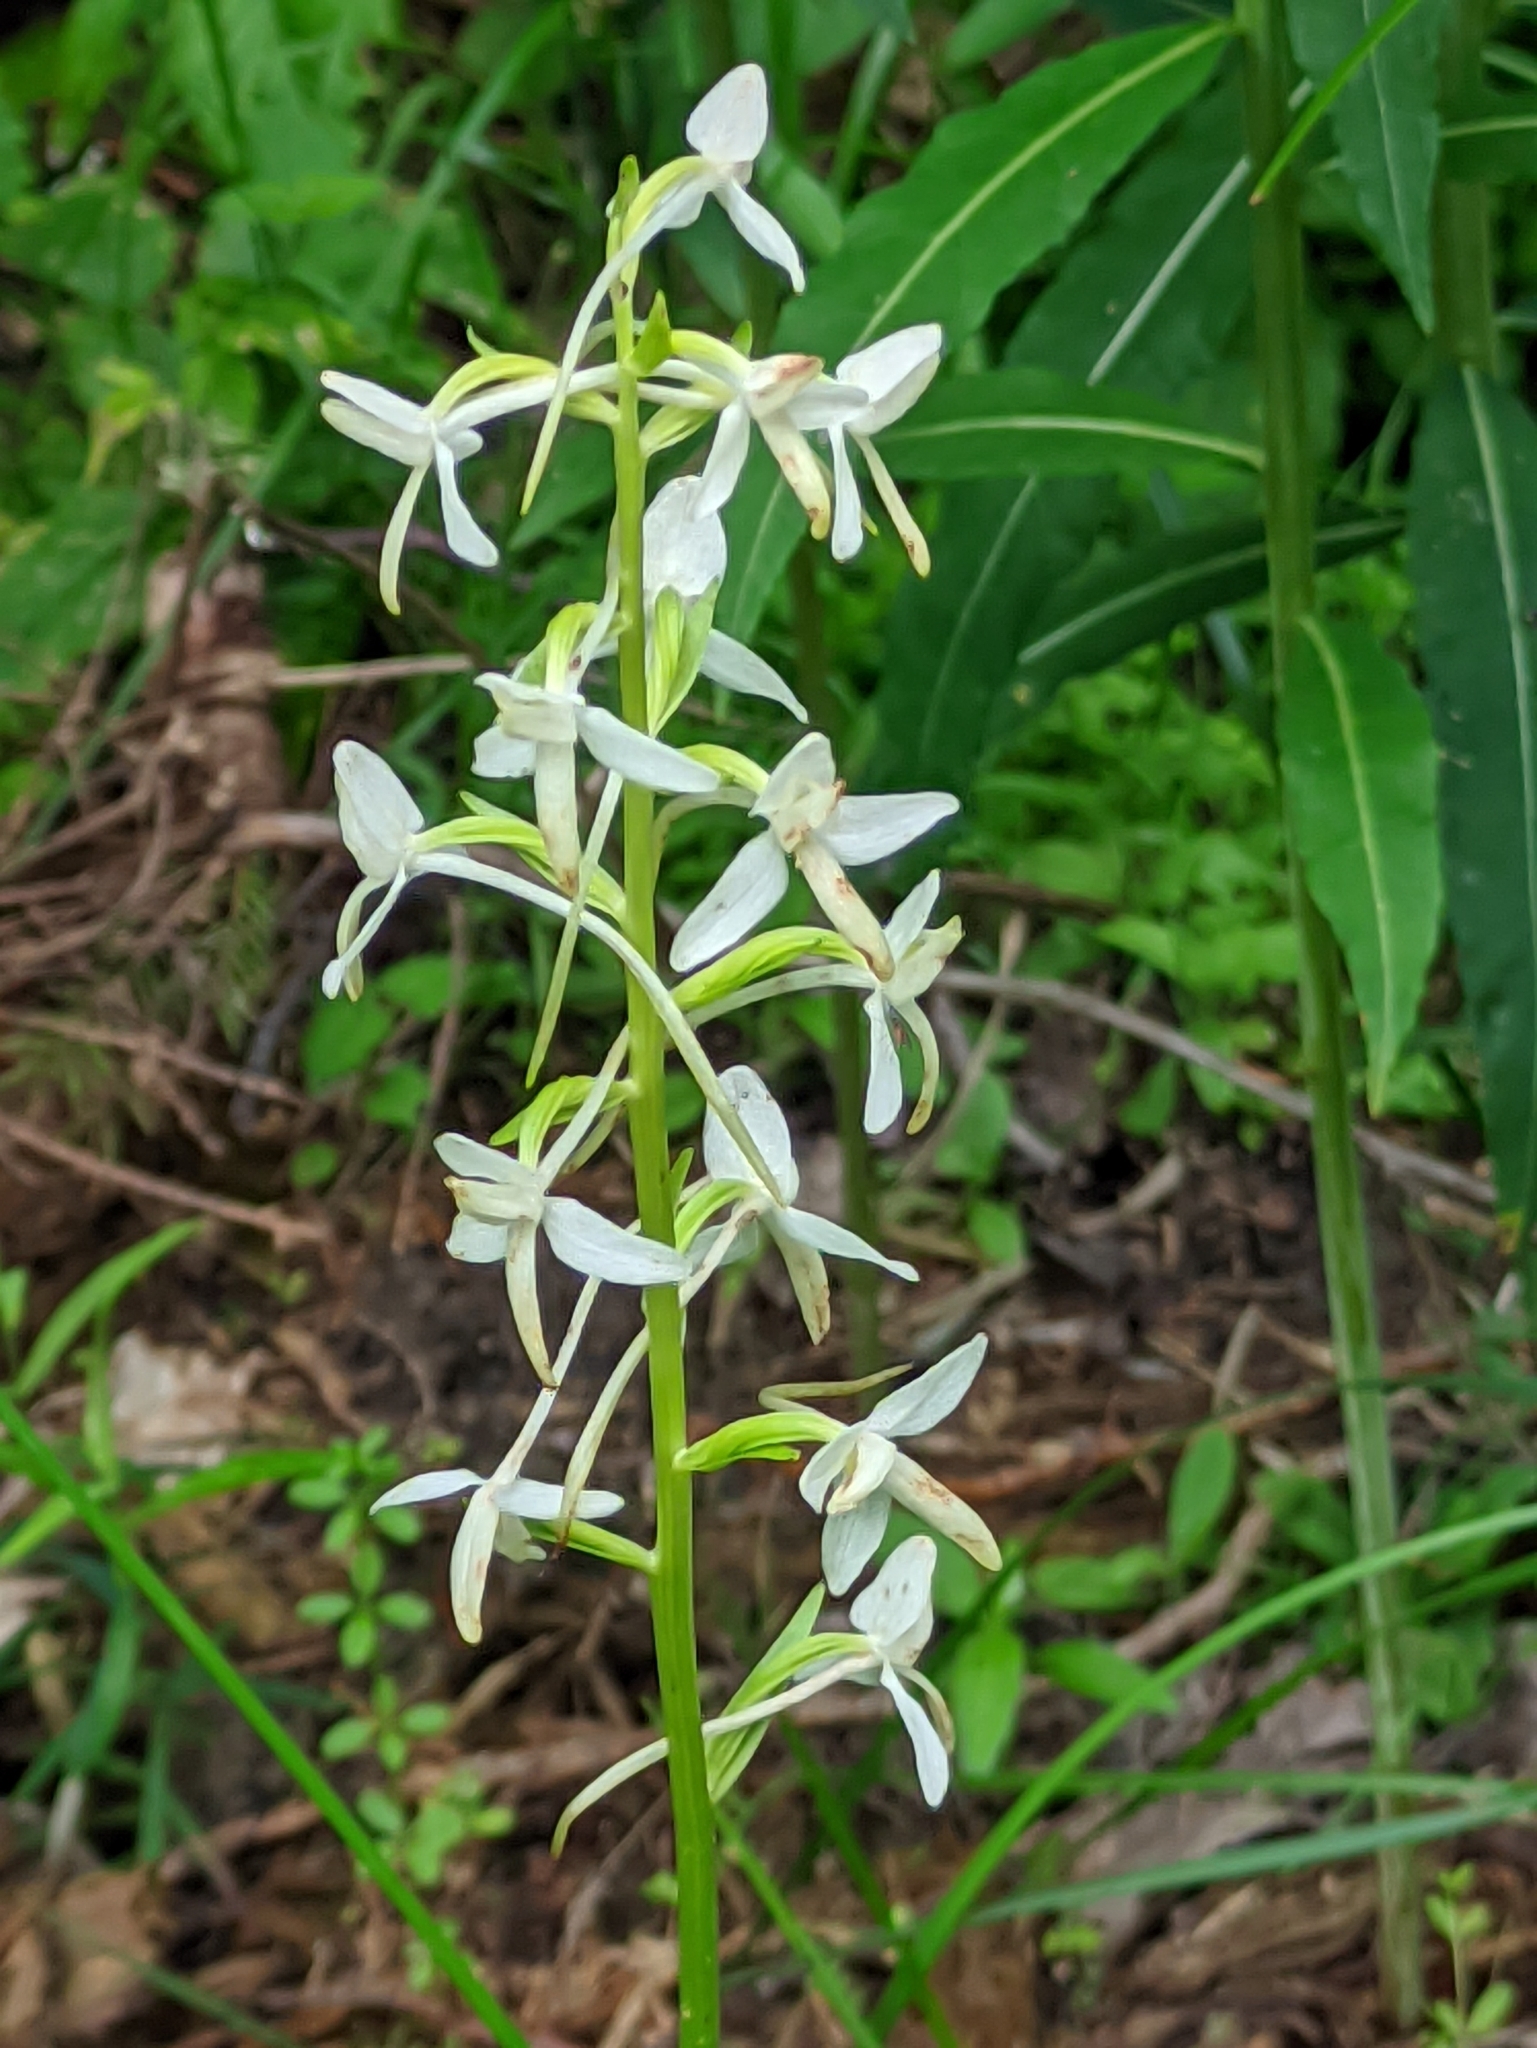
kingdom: Plantae
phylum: Tracheophyta
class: Liliopsida
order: Asparagales
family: Orchidaceae
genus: Platanthera
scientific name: Platanthera bifolia
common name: Lesser butterfly-orchid
